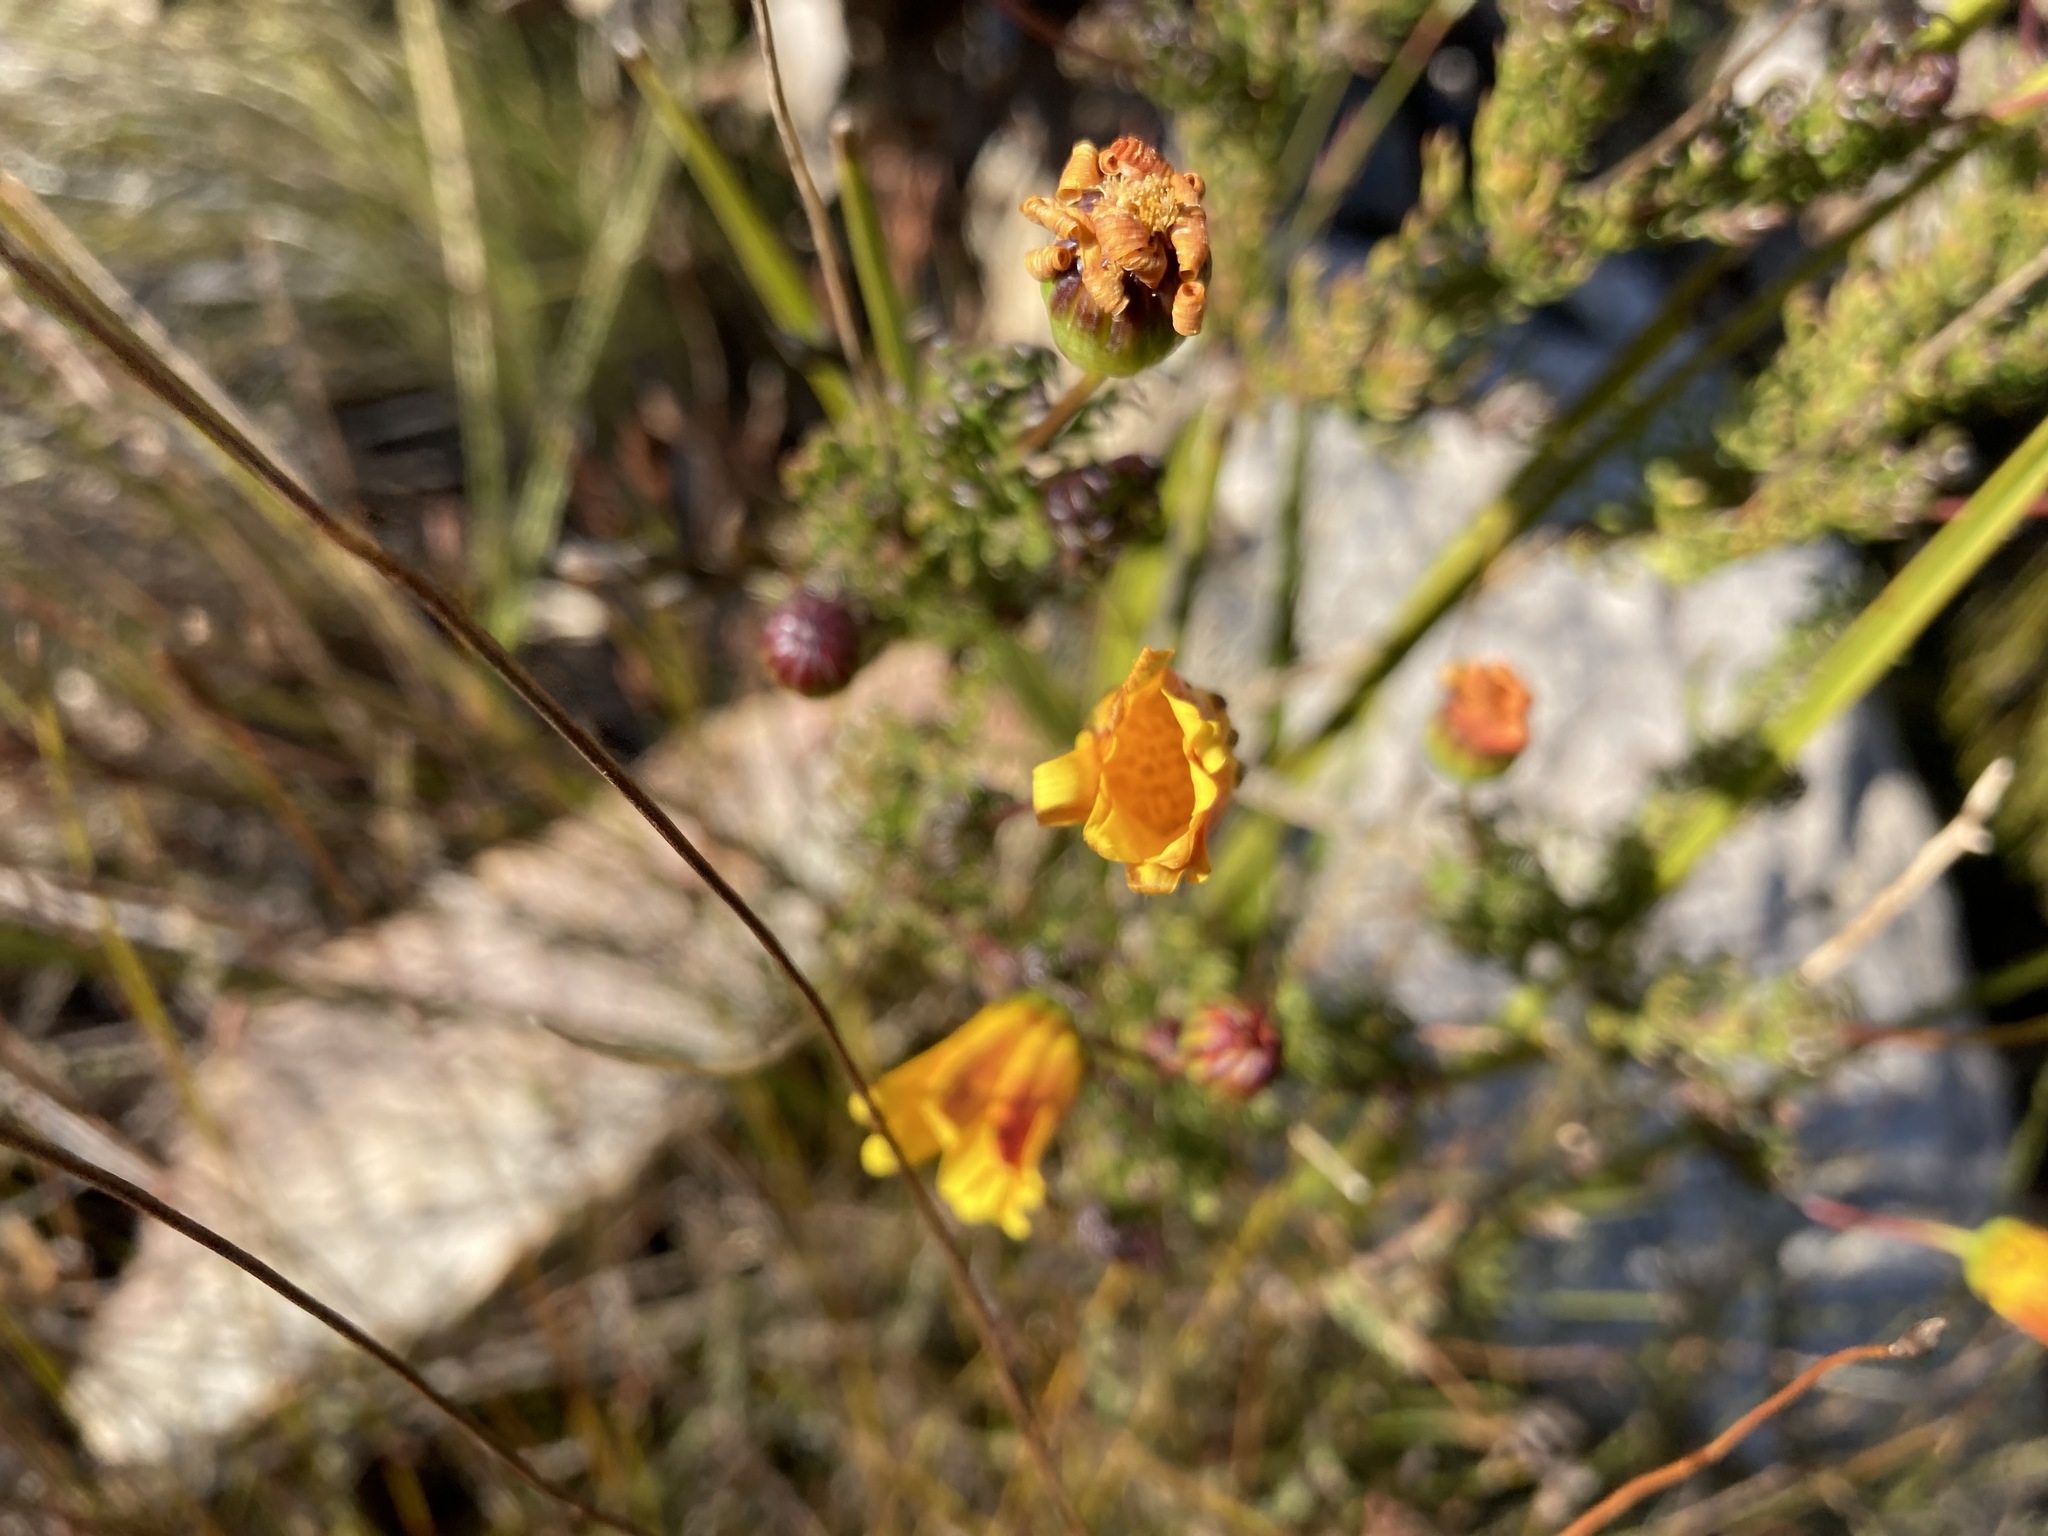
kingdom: Plantae
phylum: Tracheophyta
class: Magnoliopsida
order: Asterales
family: Asteraceae
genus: Euryops
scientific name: Euryops abrotanifolius
